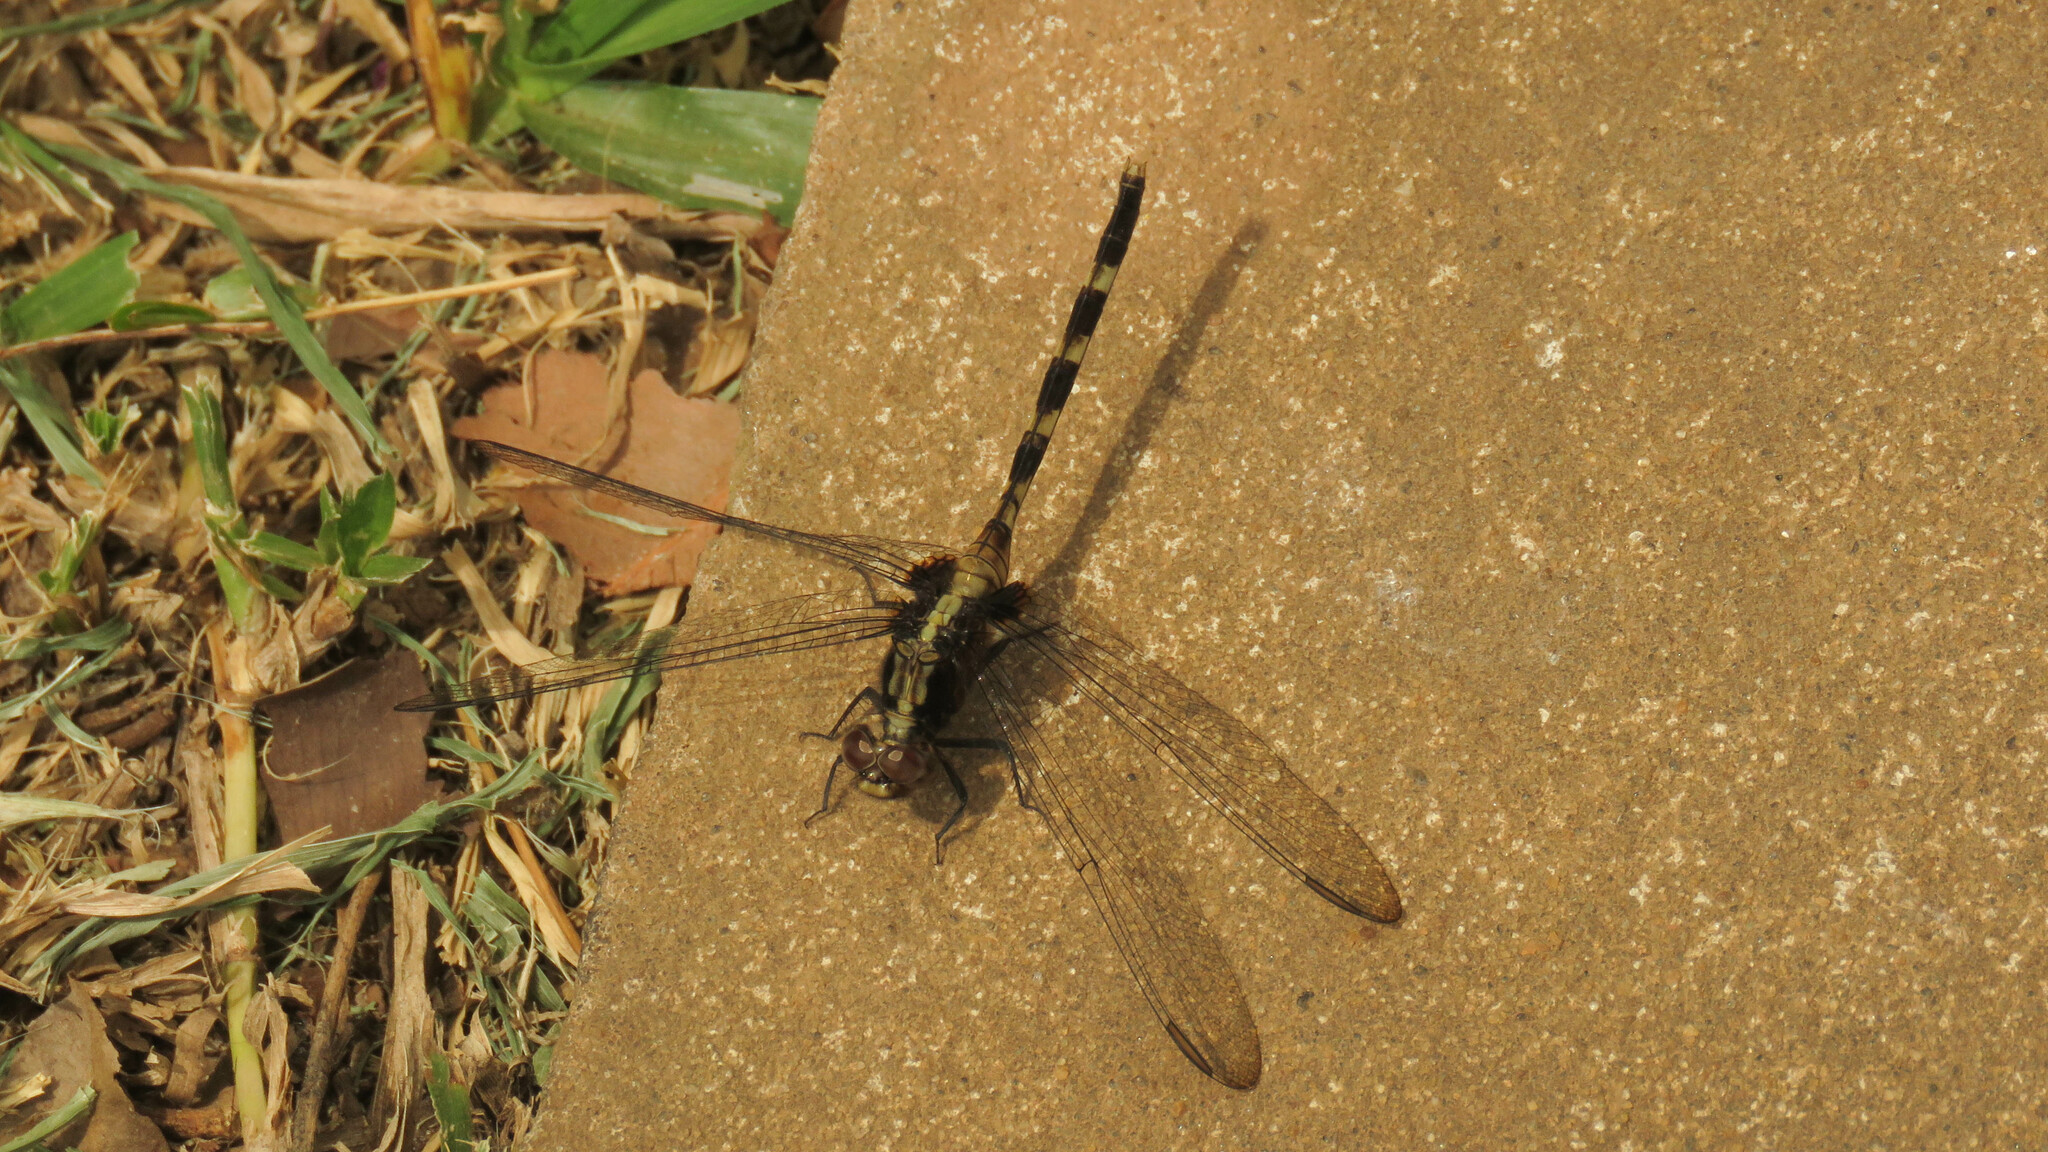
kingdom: Animalia
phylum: Arthropoda
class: Insecta
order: Odonata
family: Libellulidae
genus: Erythemis
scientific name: Erythemis plebeja
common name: Pin-tailed pondhawk
